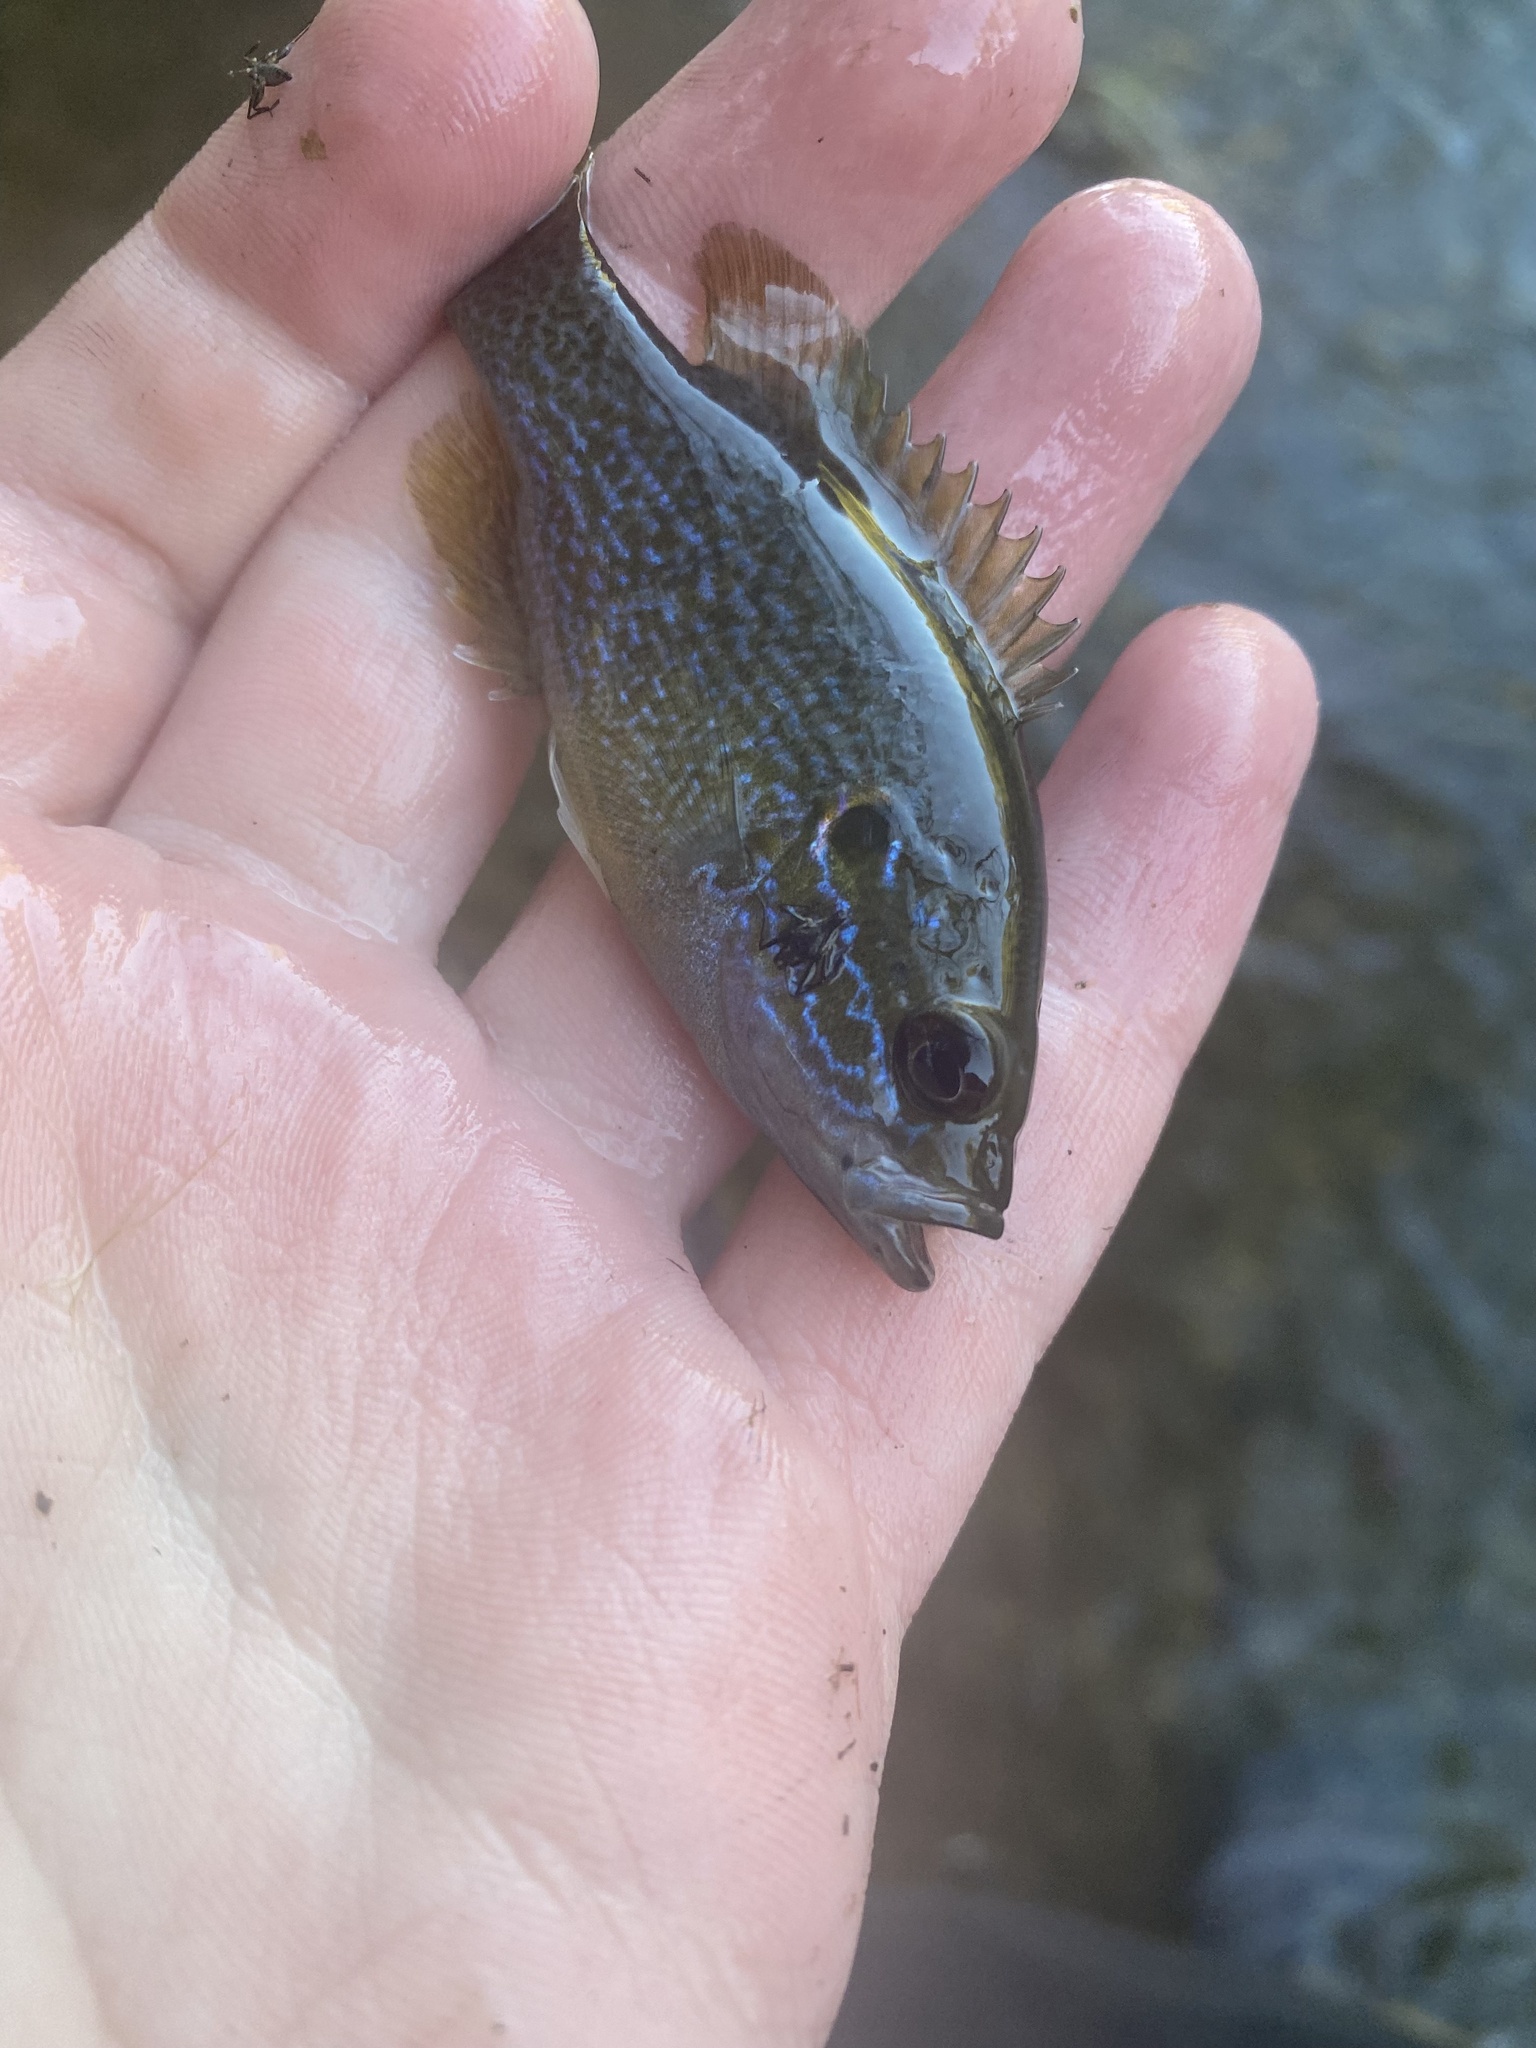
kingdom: Animalia
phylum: Chordata
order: Perciformes
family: Centrarchidae
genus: Lepomis
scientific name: Lepomis cyanellus
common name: Green sunfish
